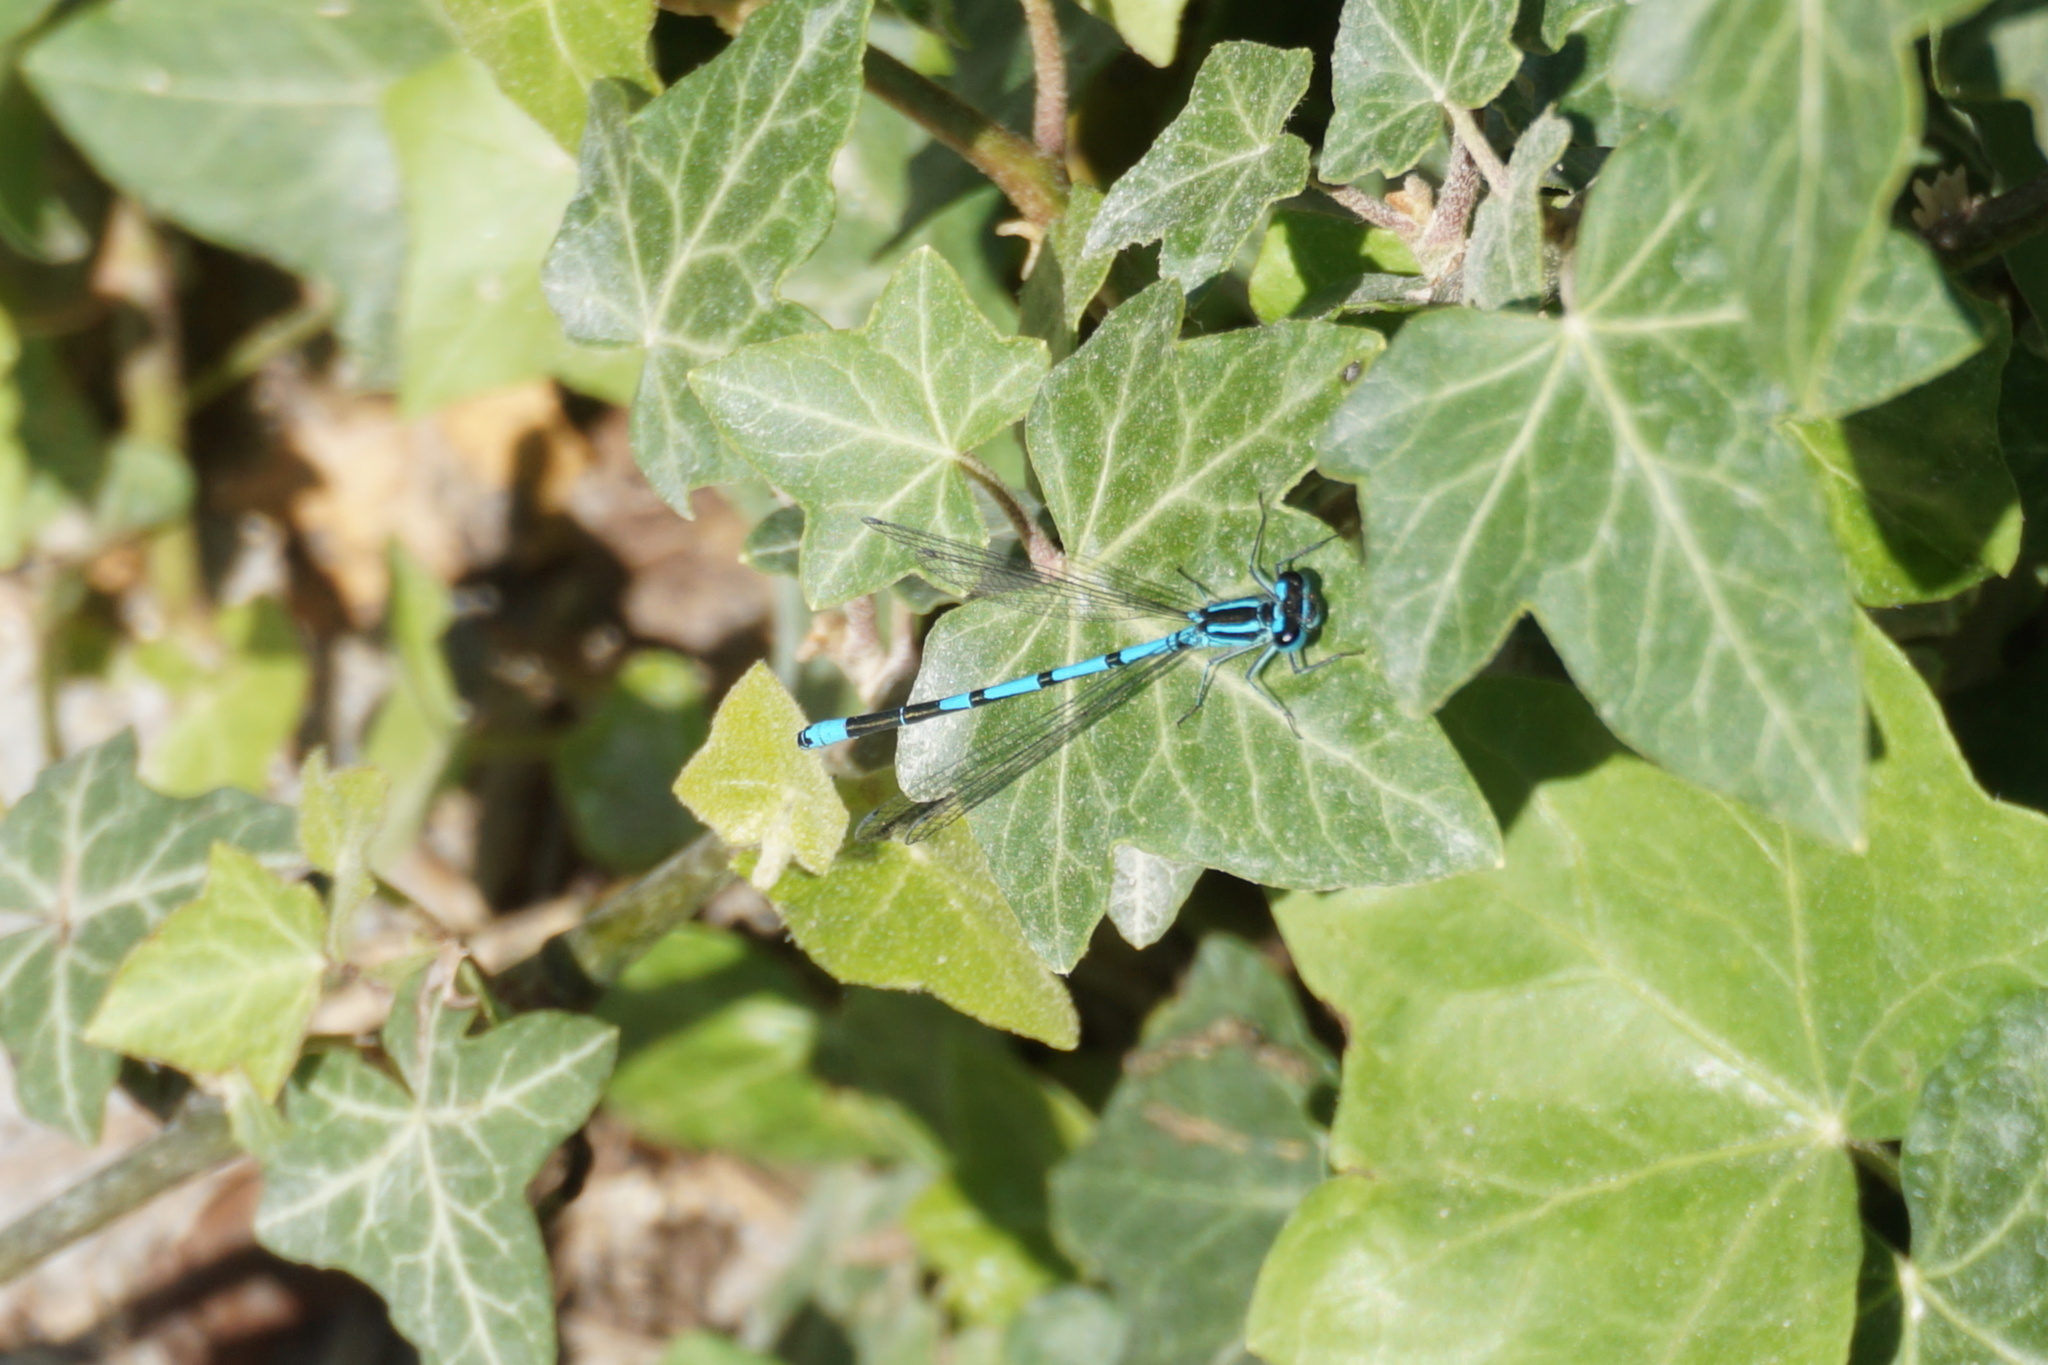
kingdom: Animalia
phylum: Arthropoda
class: Insecta
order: Odonata
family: Coenagrionidae
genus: Coenagrion
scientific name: Coenagrion puella
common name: Azure damselfly
